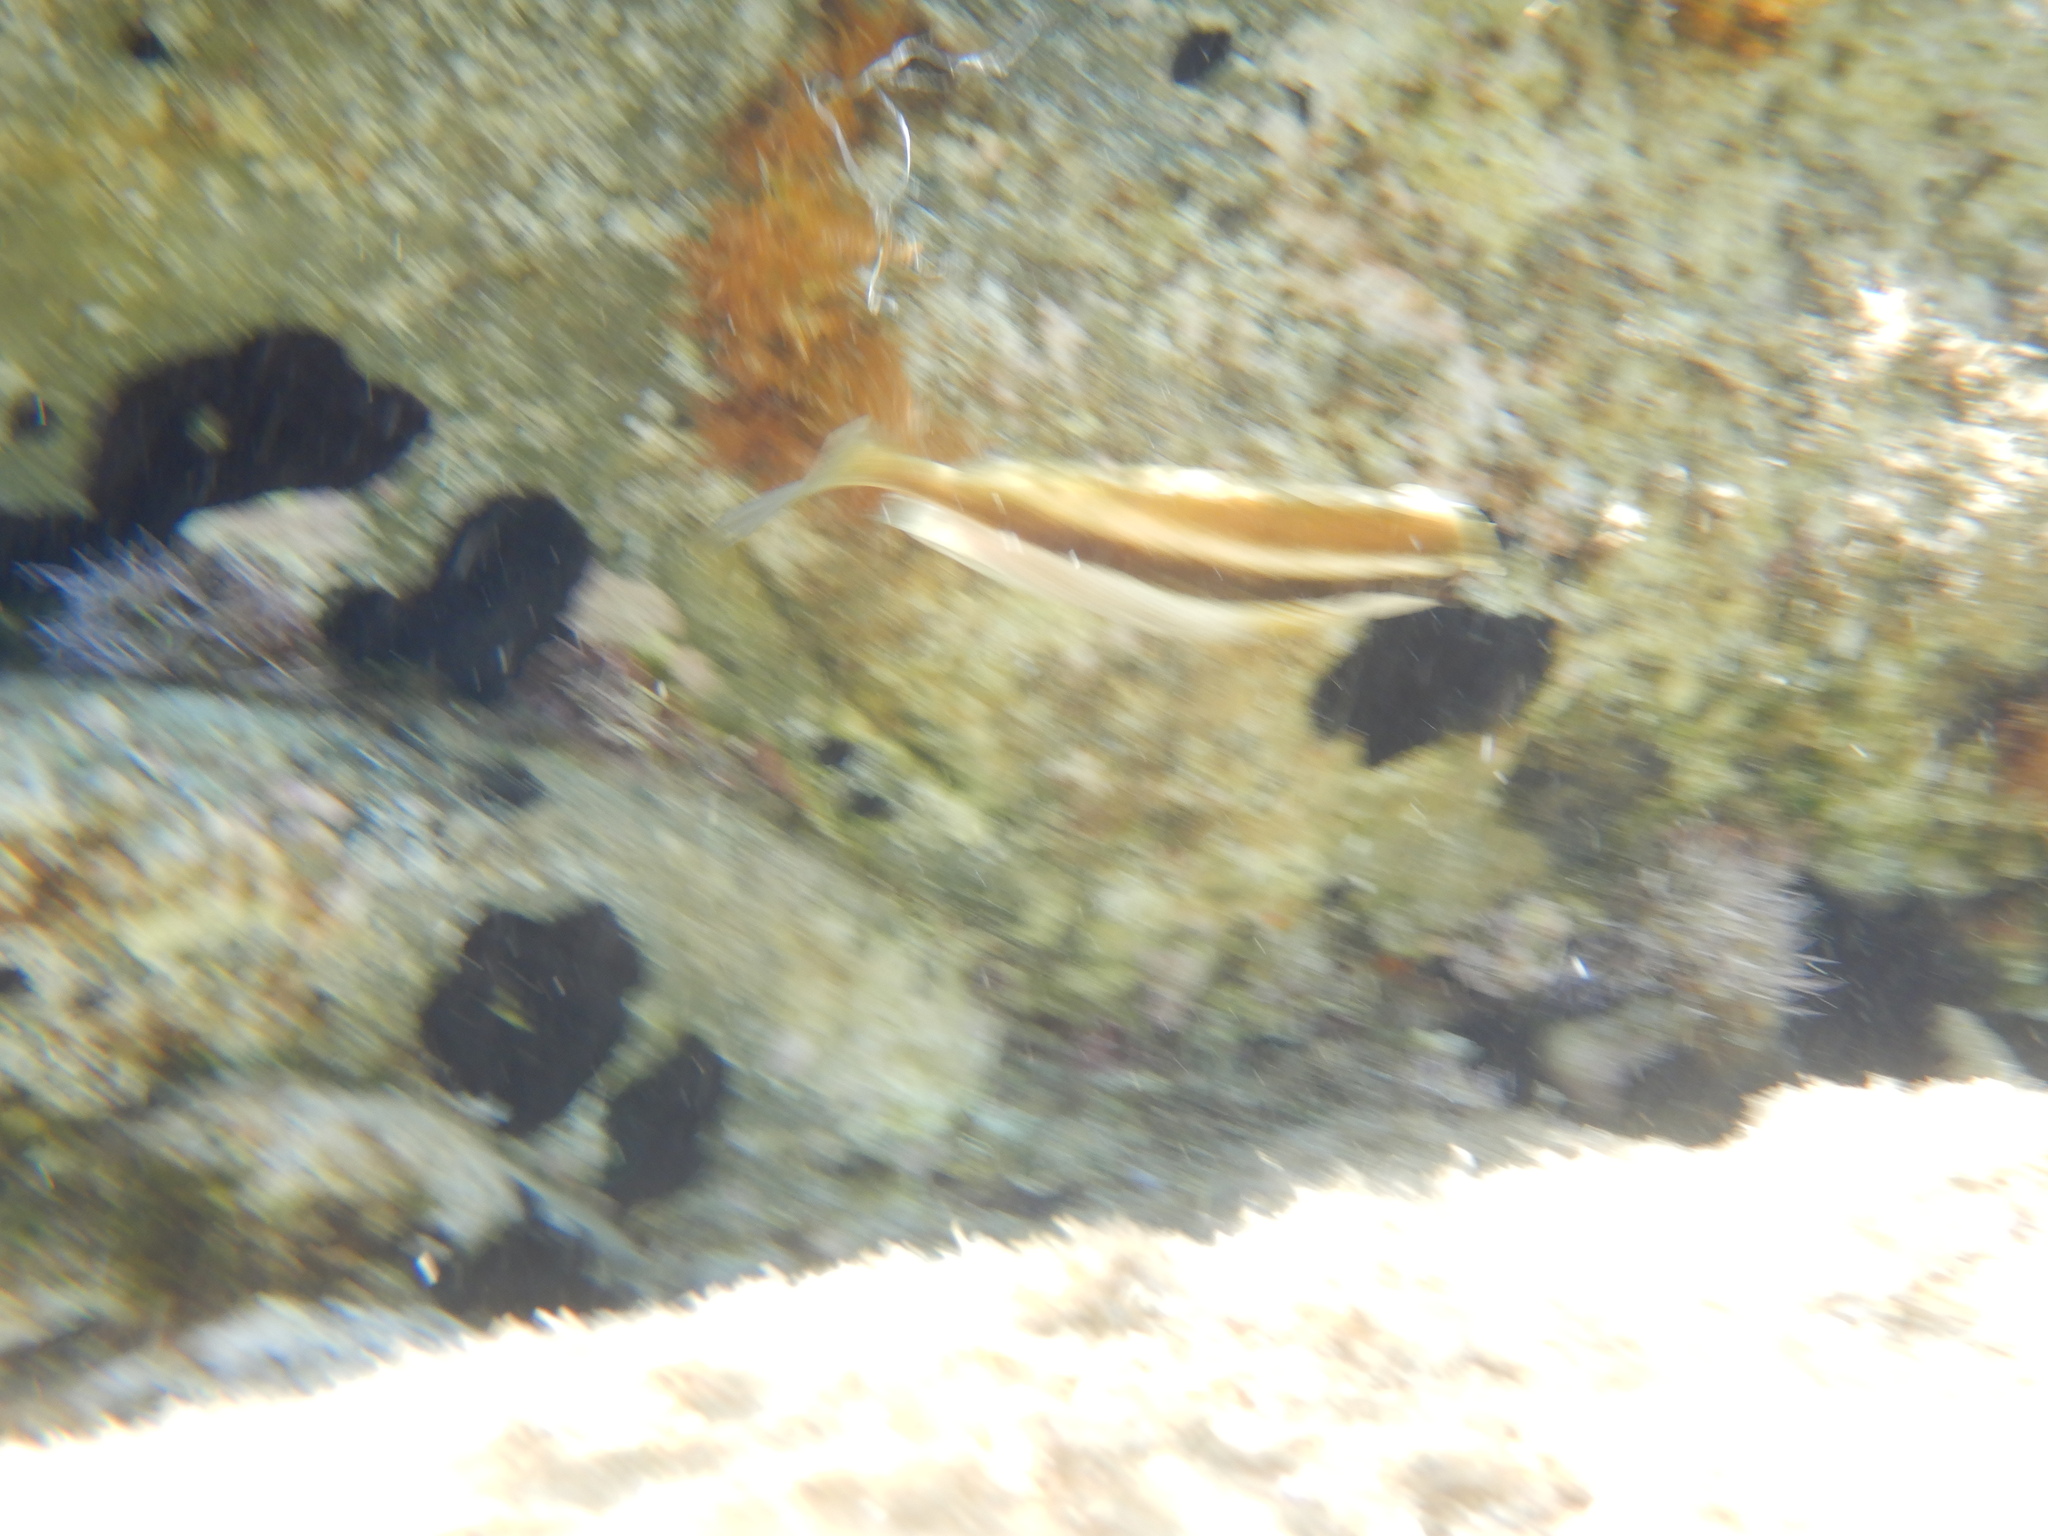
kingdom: Animalia
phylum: Chordata
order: Perciformes
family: Siganidae
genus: Siganus
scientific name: Siganus luridus
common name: Dusky spinefoot
